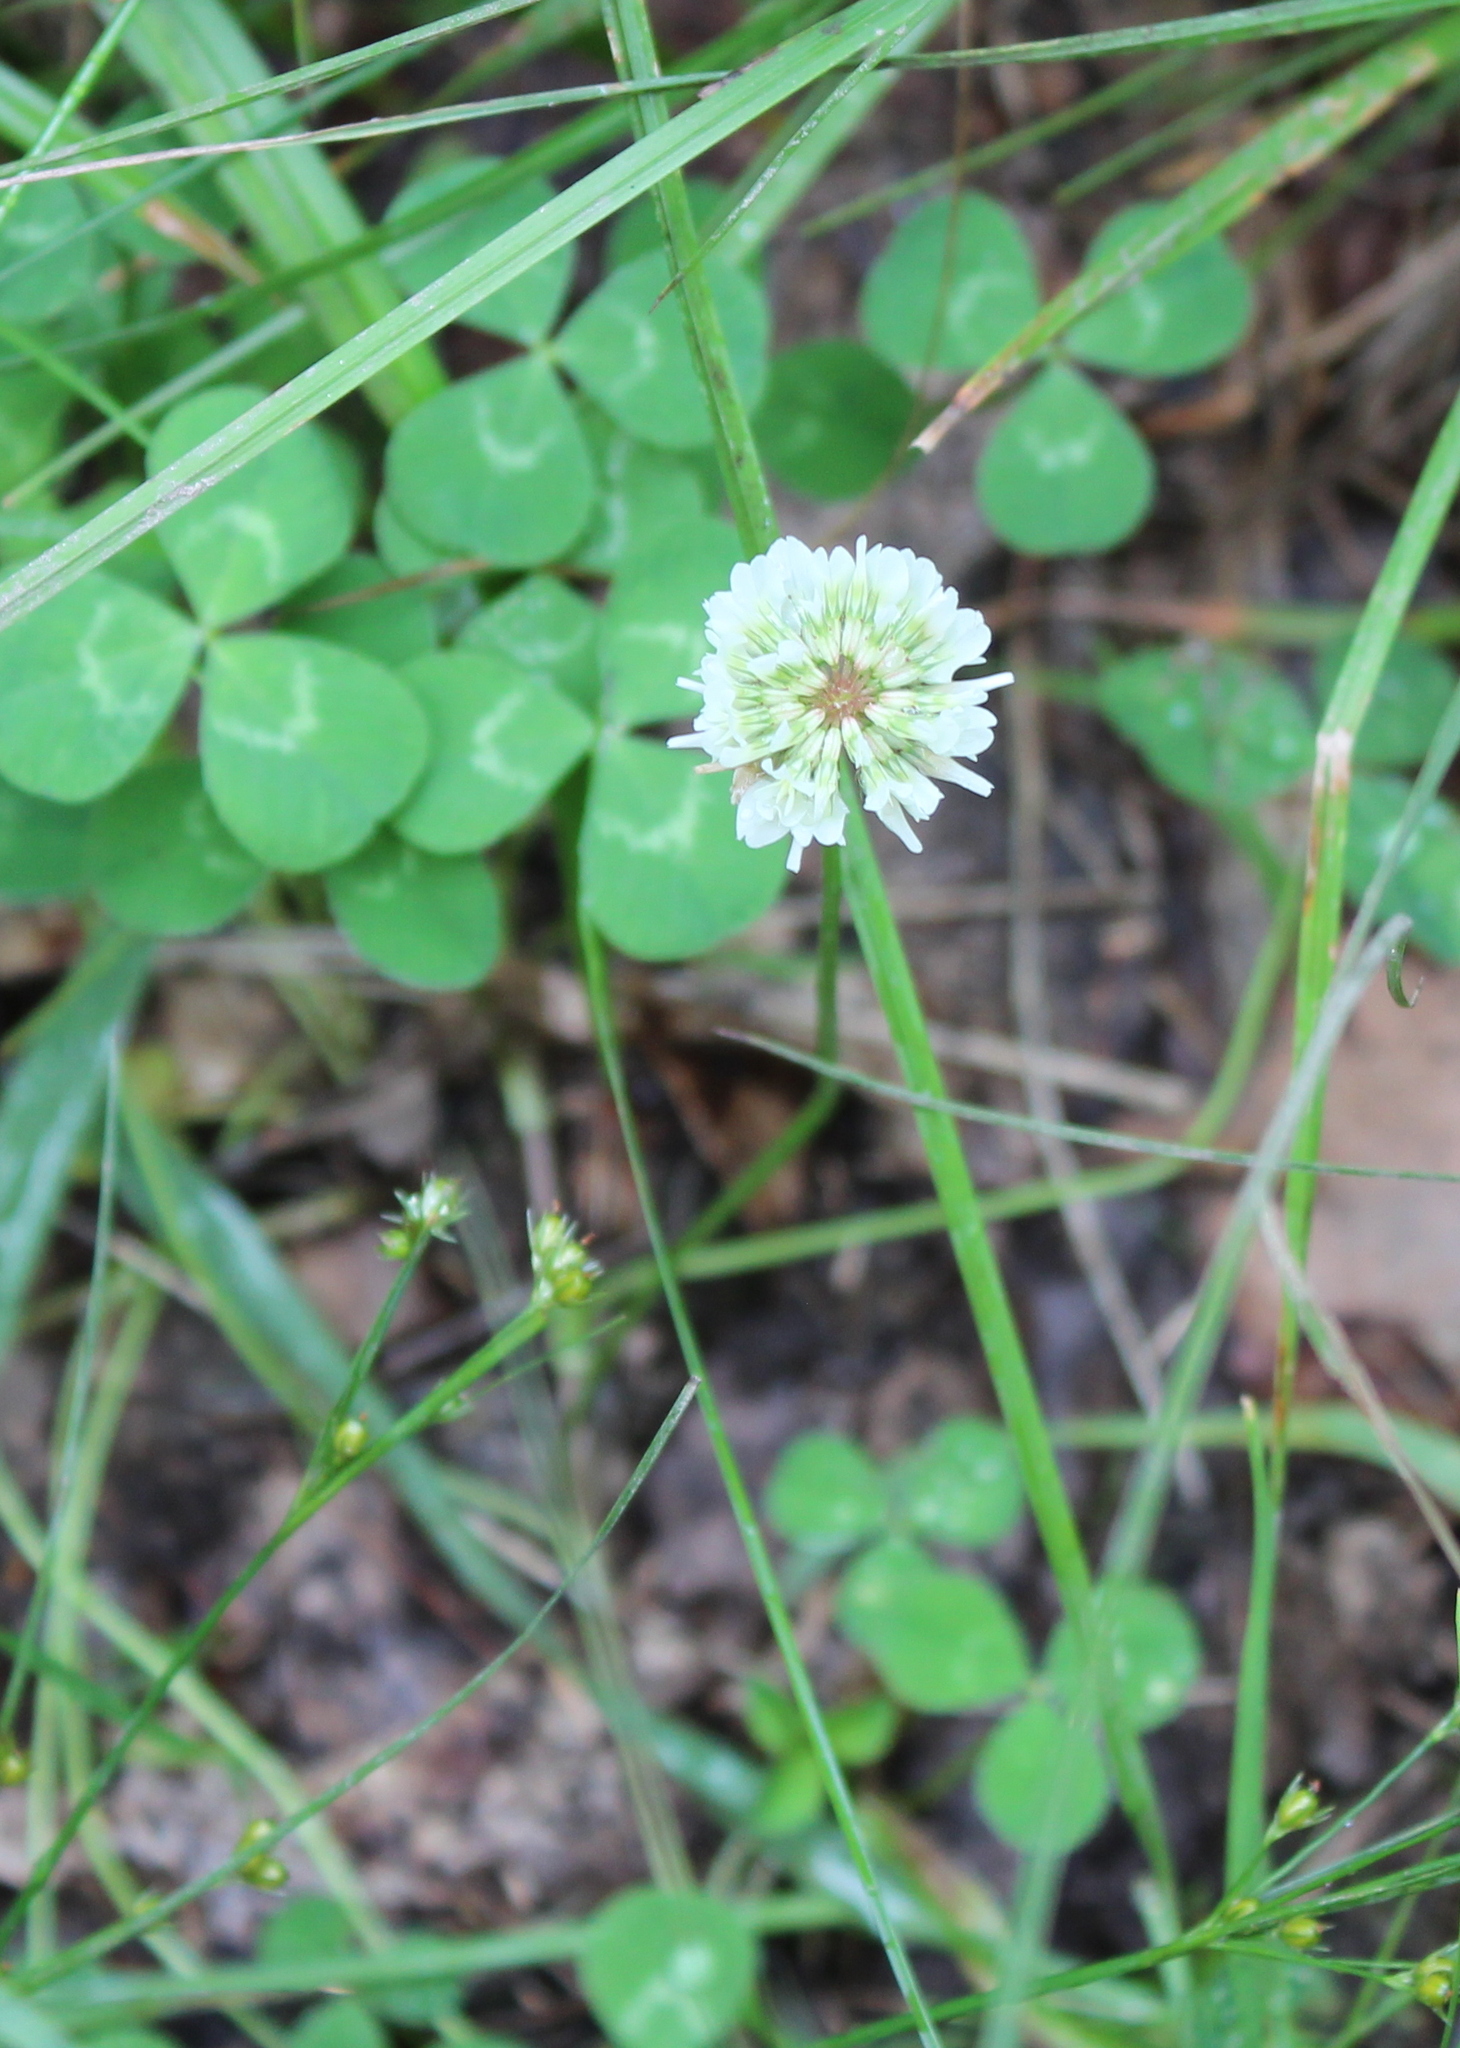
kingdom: Plantae
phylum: Tracheophyta
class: Magnoliopsida
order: Fabales
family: Fabaceae
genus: Trifolium
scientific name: Trifolium repens
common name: White clover
